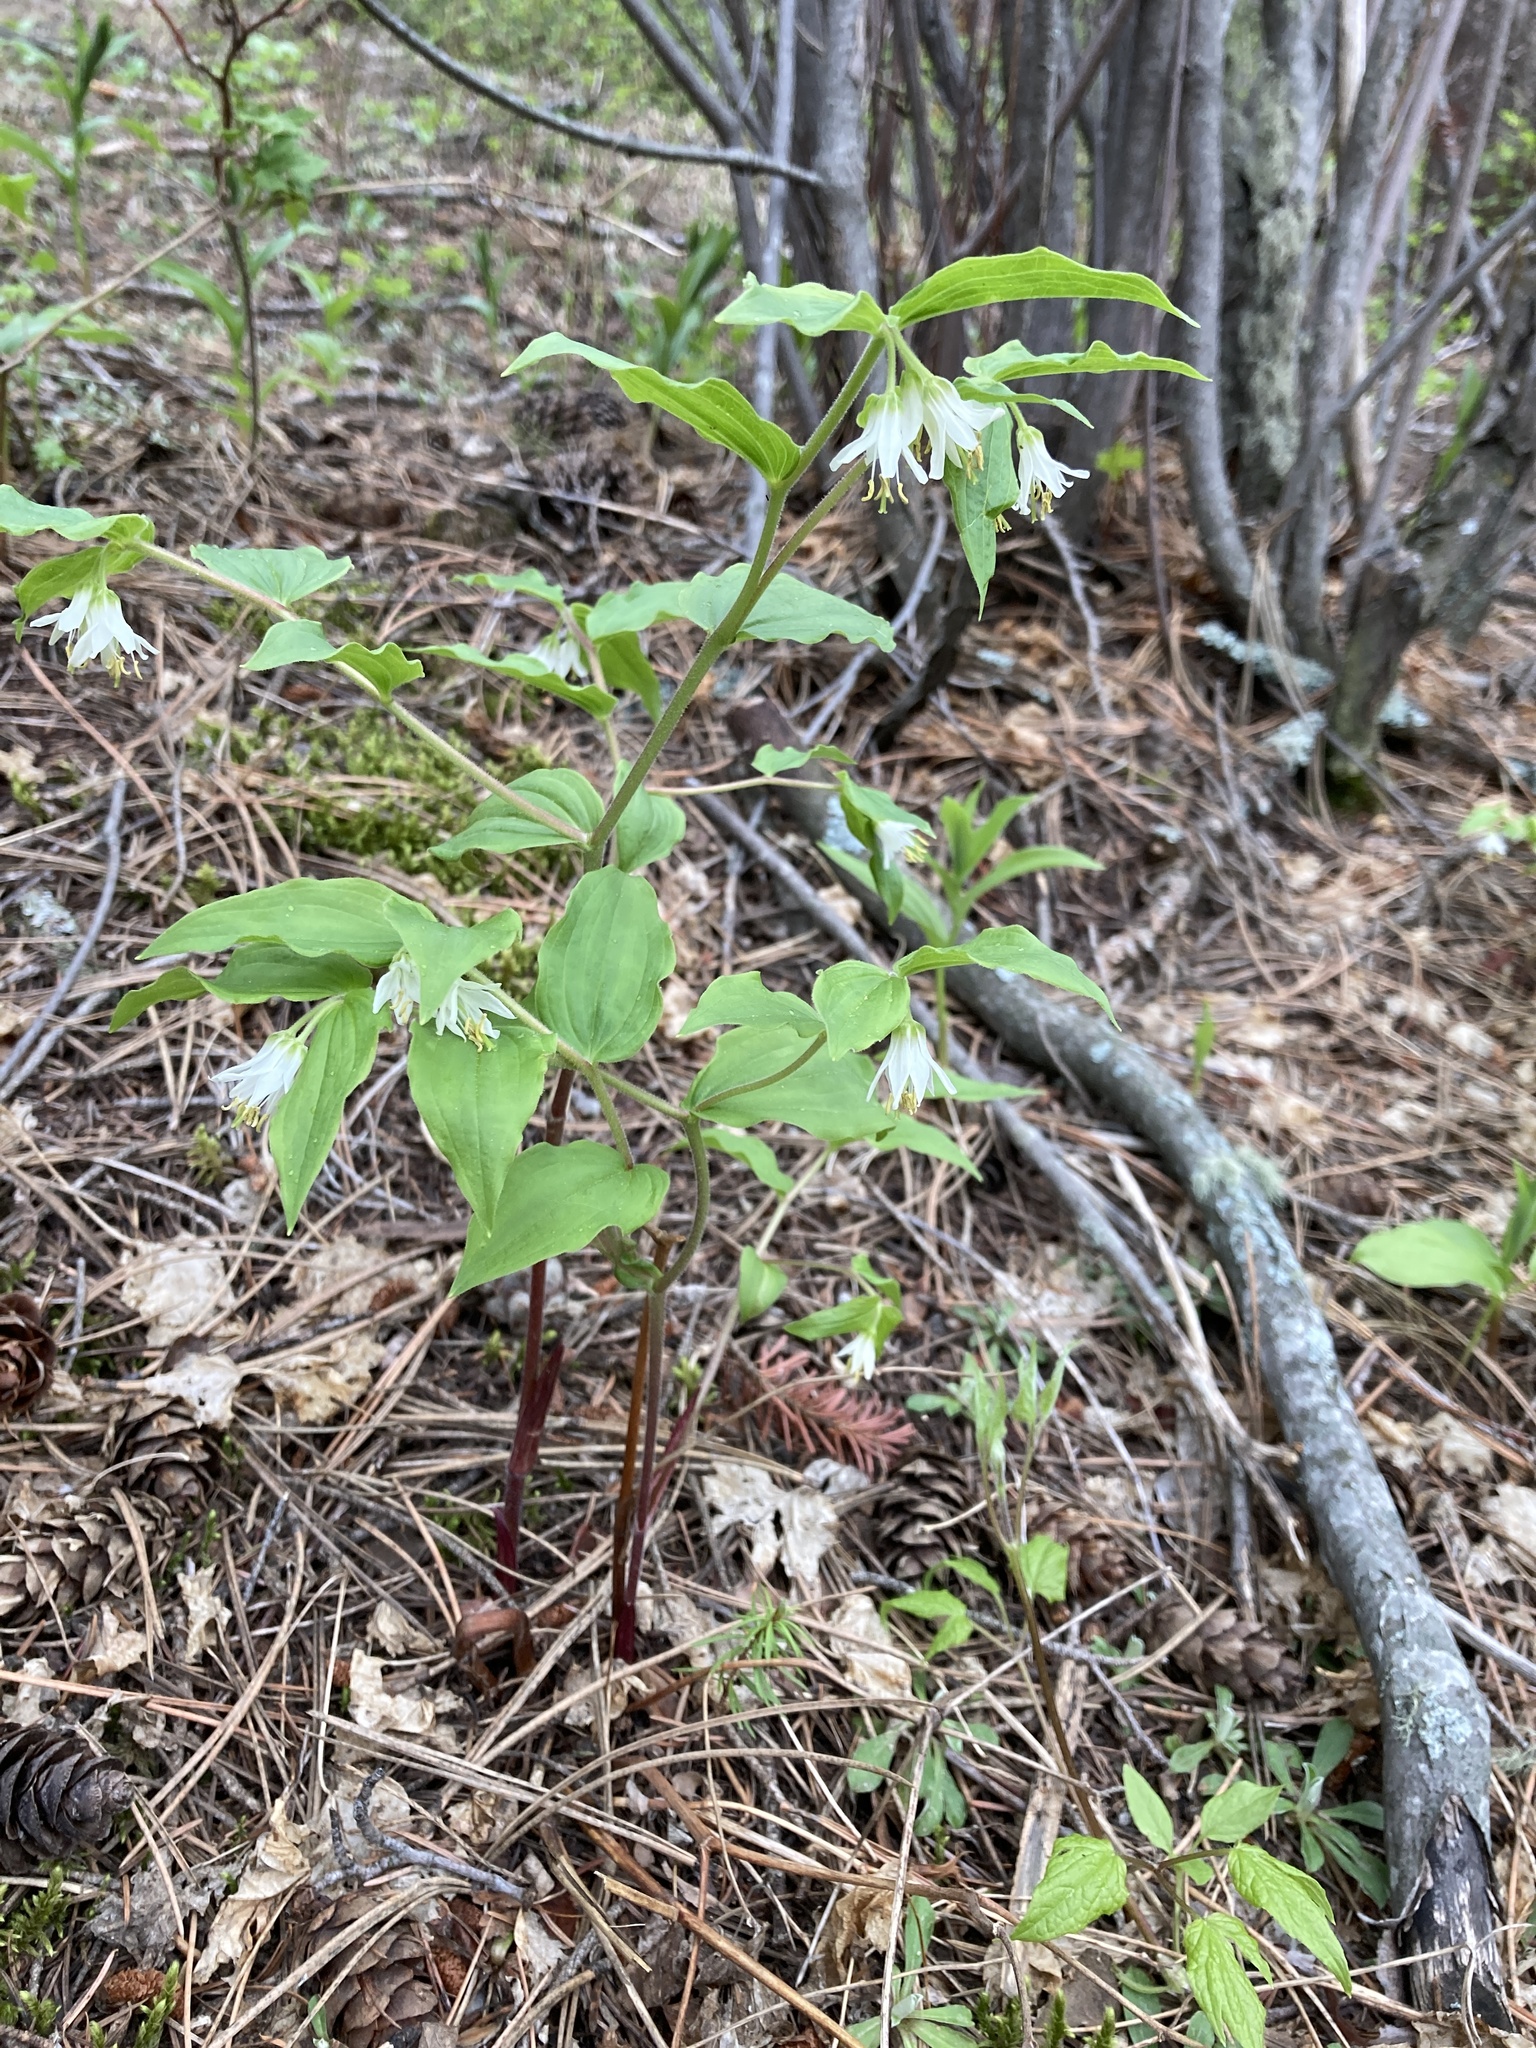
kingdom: Plantae
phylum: Tracheophyta
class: Liliopsida
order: Liliales
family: Liliaceae
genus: Prosartes
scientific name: Prosartes trachycarpa
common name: Rough-fruit fairy-bells
